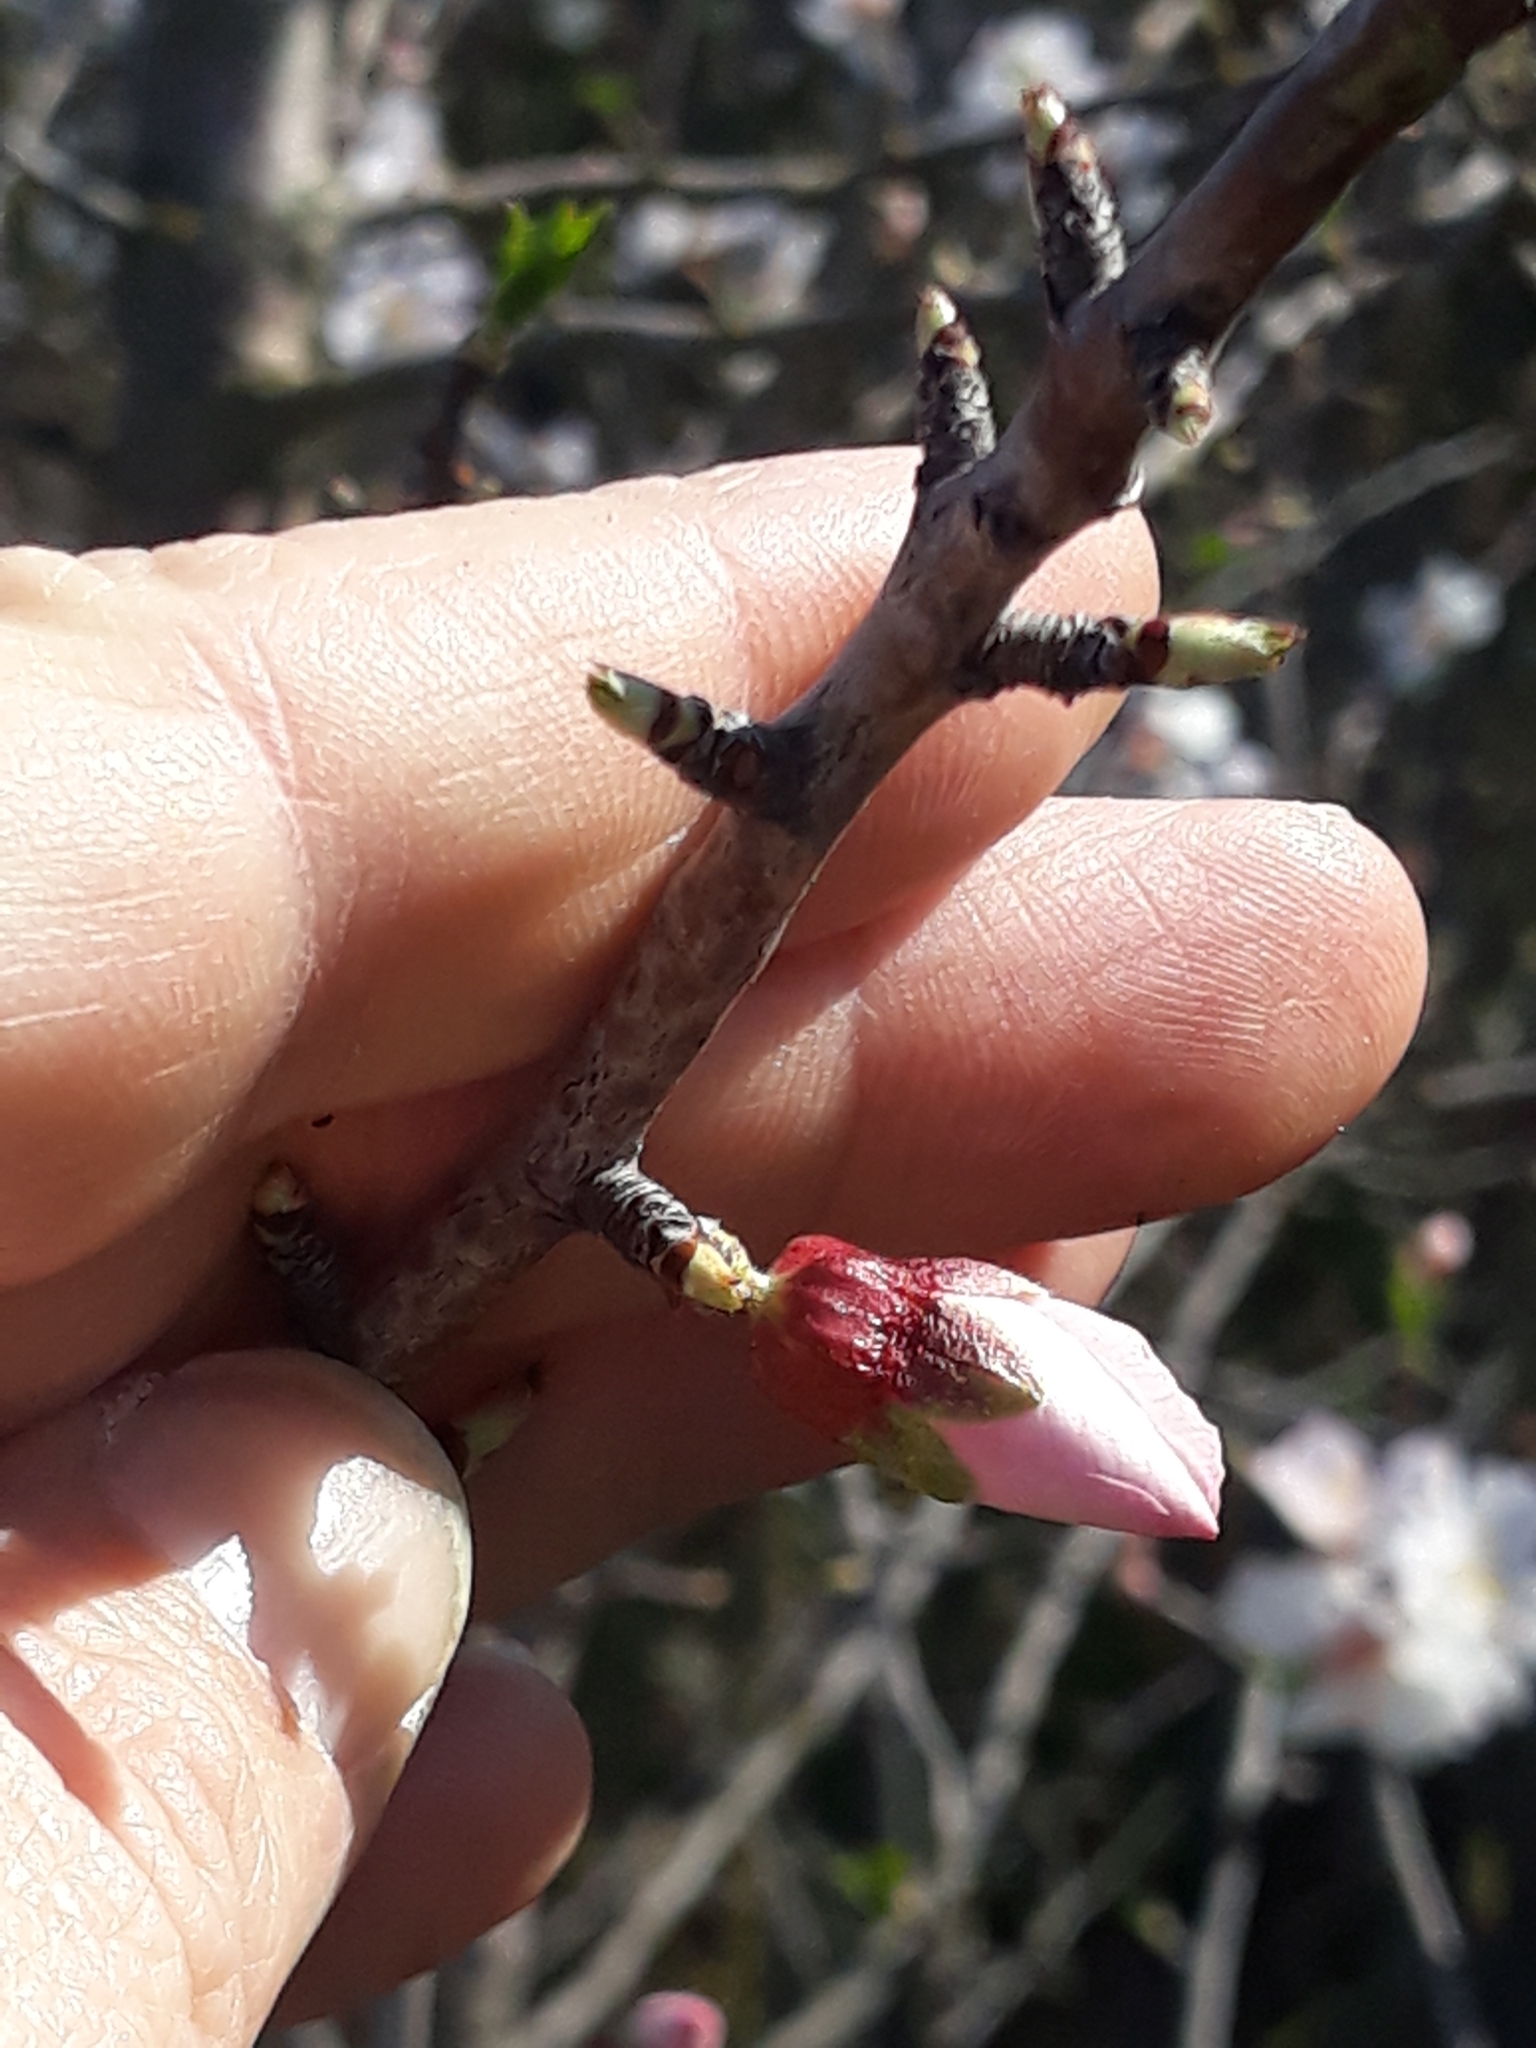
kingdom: Plantae
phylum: Tracheophyta
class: Magnoliopsida
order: Rosales
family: Rosaceae
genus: Prunus
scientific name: Prunus amygdalus
